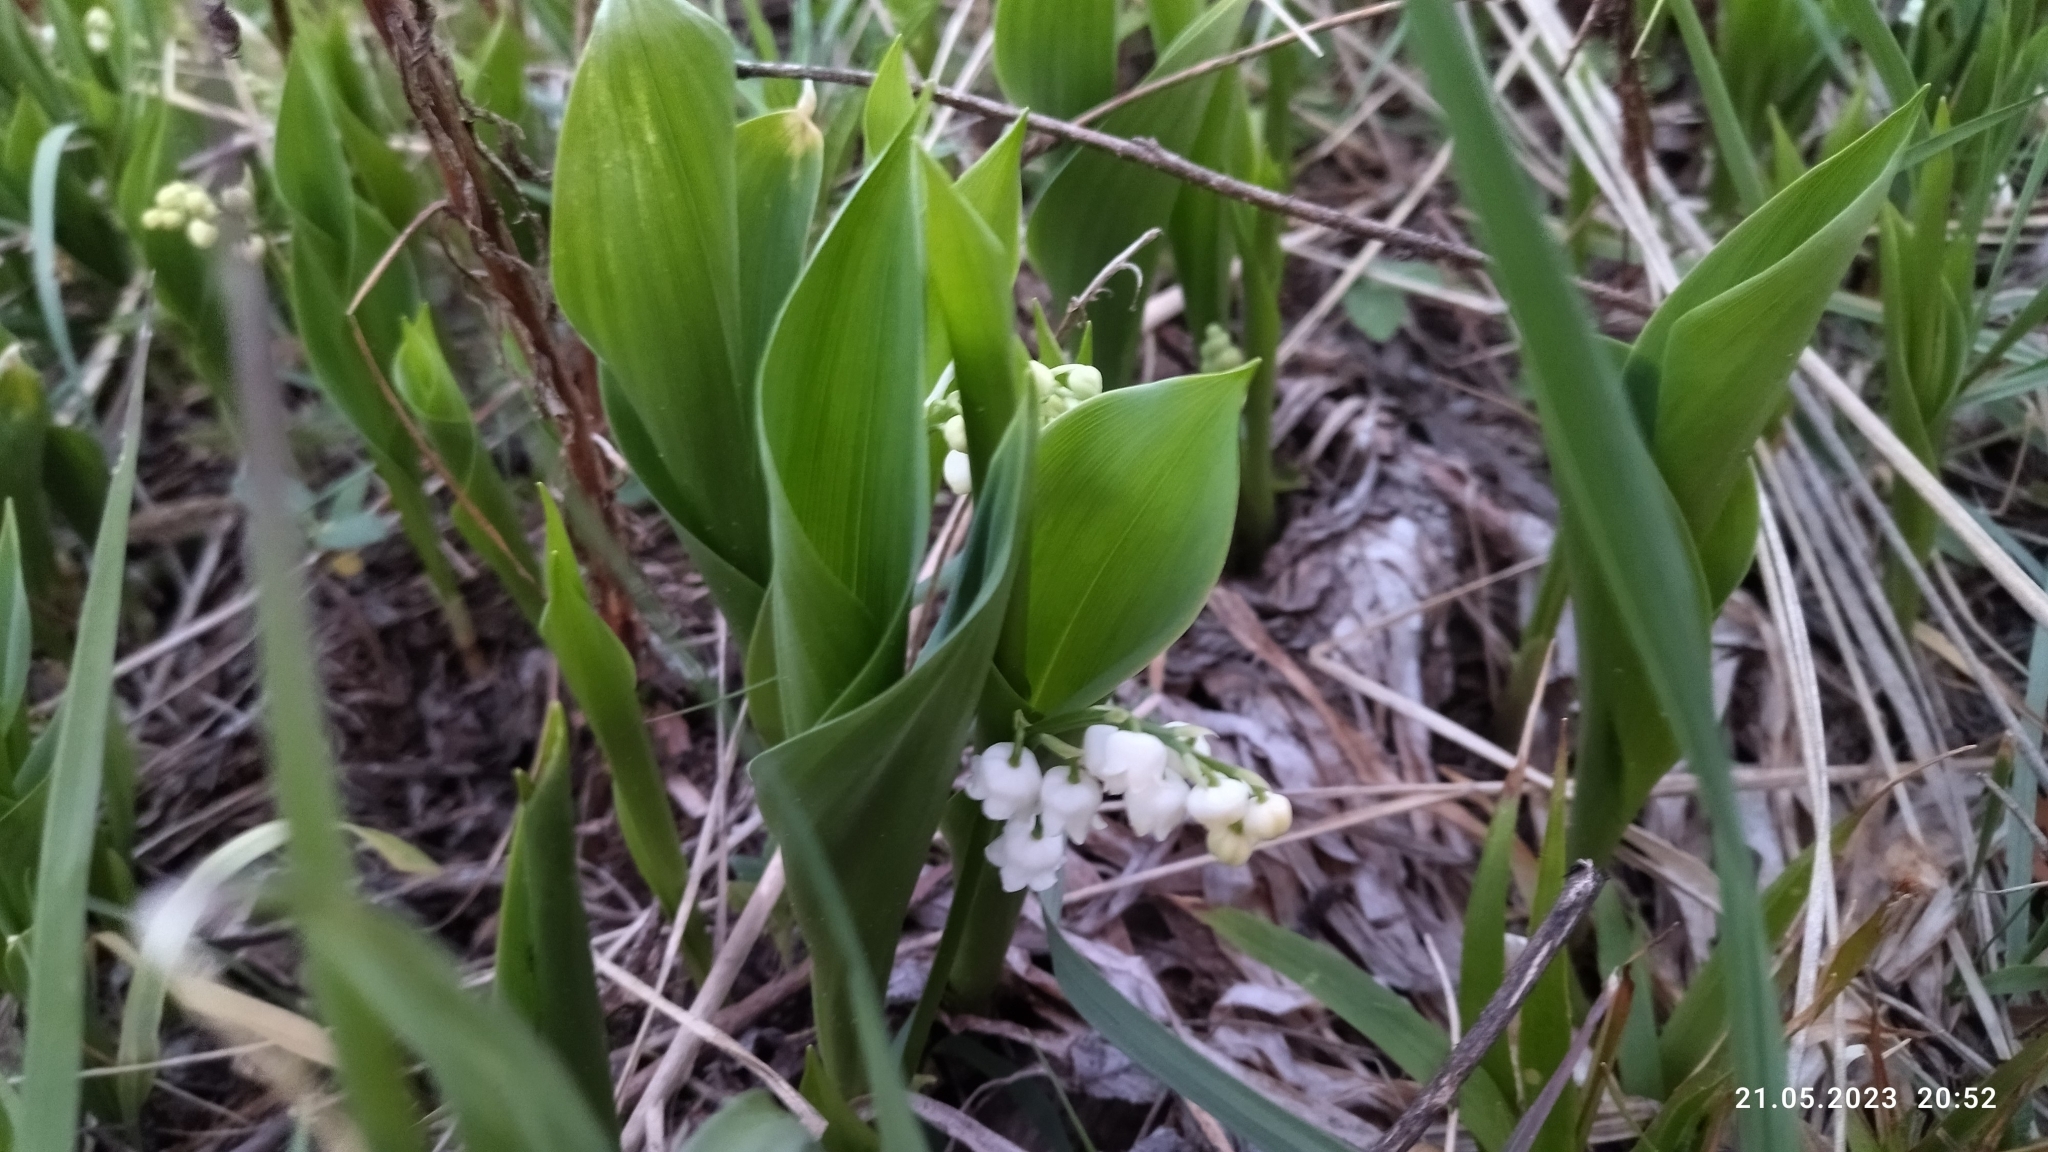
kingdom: Plantae
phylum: Tracheophyta
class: Liliopsida
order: Asparagales
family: Asparagaceae
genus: Convallaria
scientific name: Convallaria majalis
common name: Lily-of-the-valley
